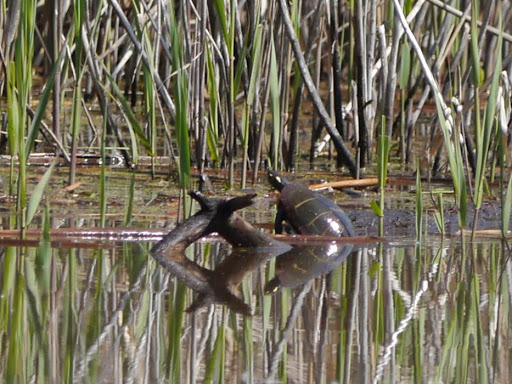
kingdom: Animalia
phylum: Chordata
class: Testudines
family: Emydidae
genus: Chrysemys
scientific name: Chrysemys picta
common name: Painted turtle
